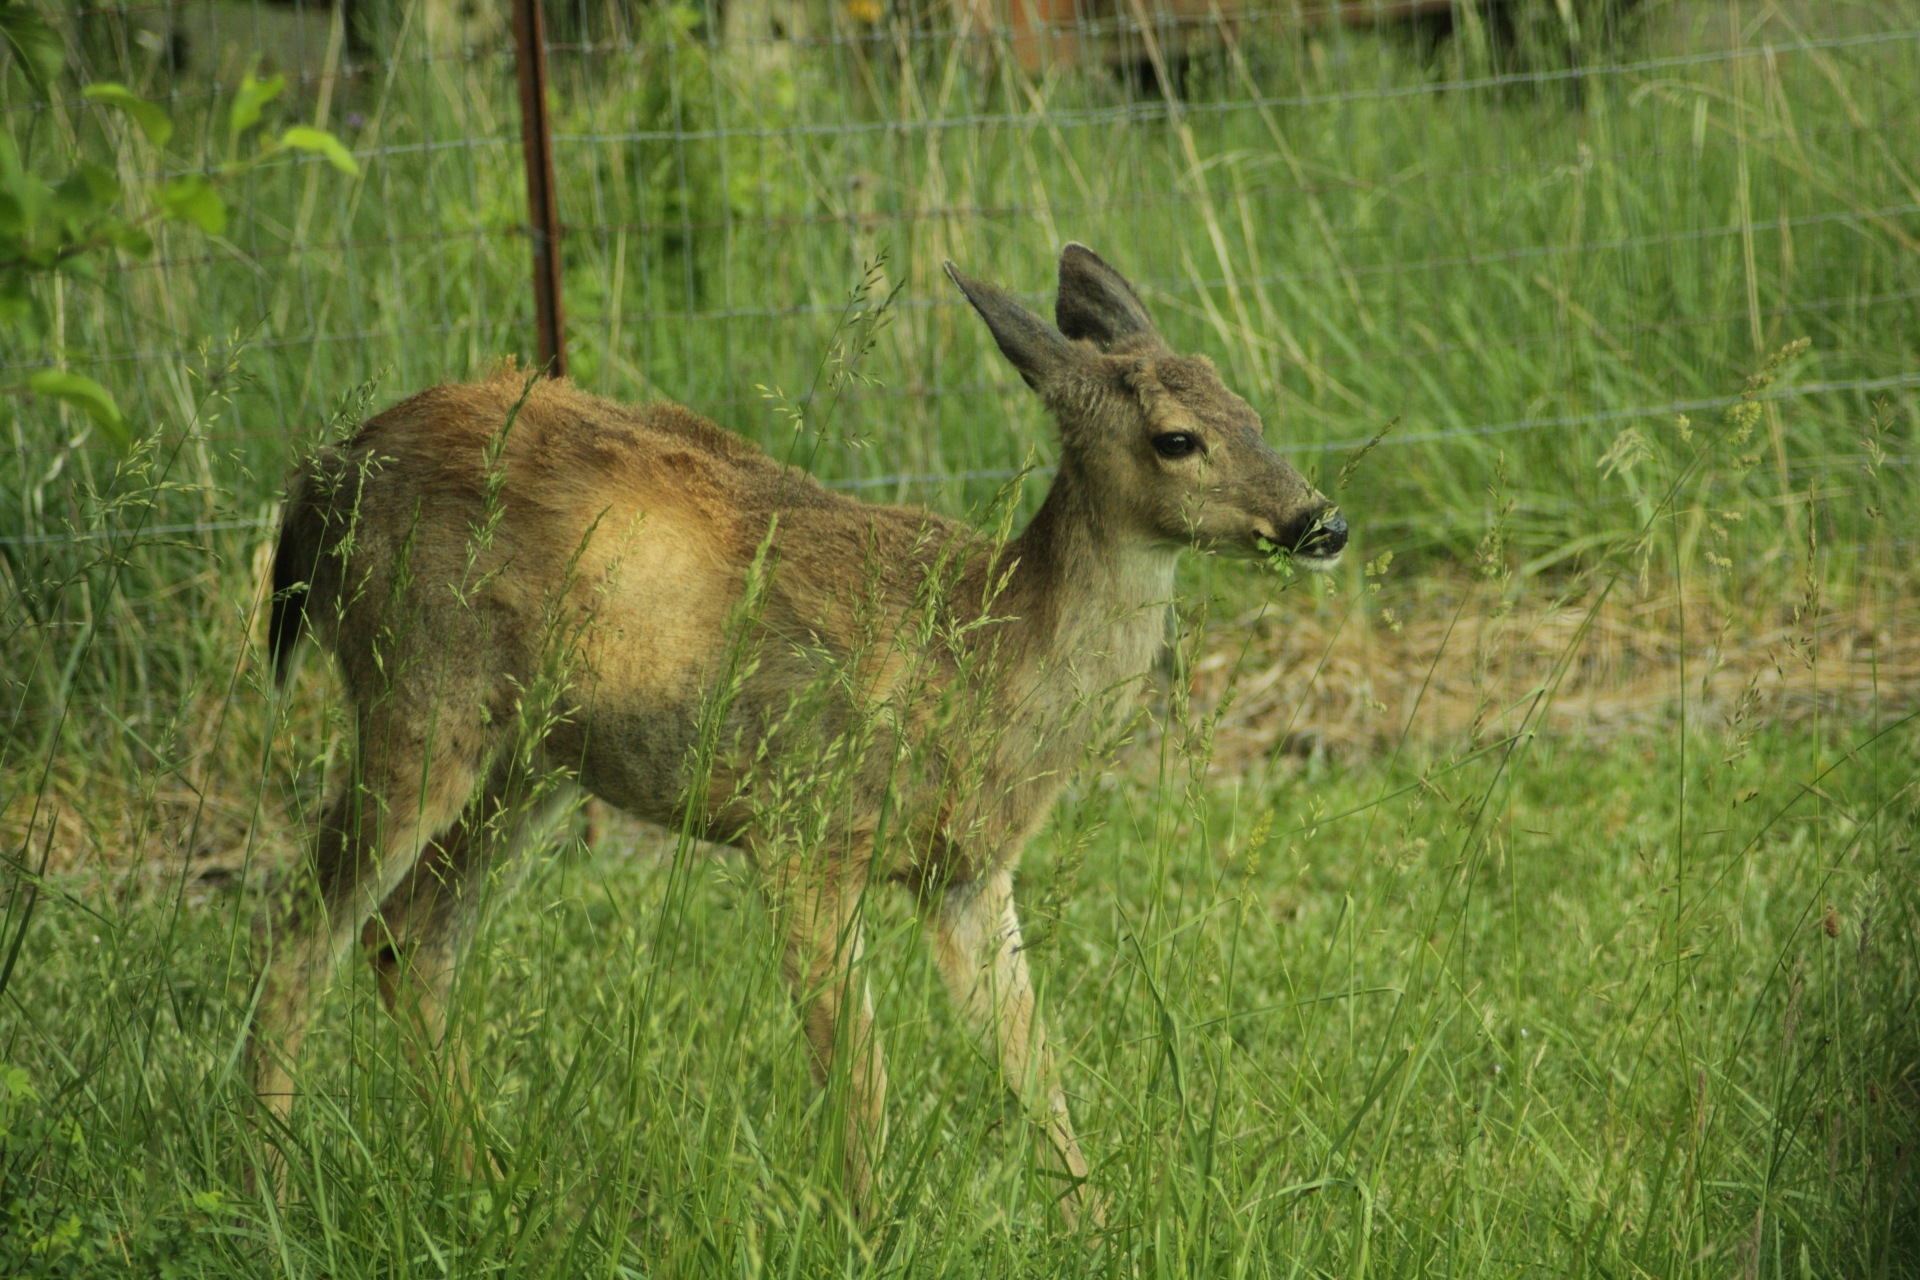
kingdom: Animalia
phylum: Chordata
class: Mammalia
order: Artiodactyla
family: Cervidae
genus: Odocoileus
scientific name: Odocoileus hemionus
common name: Mule deer
